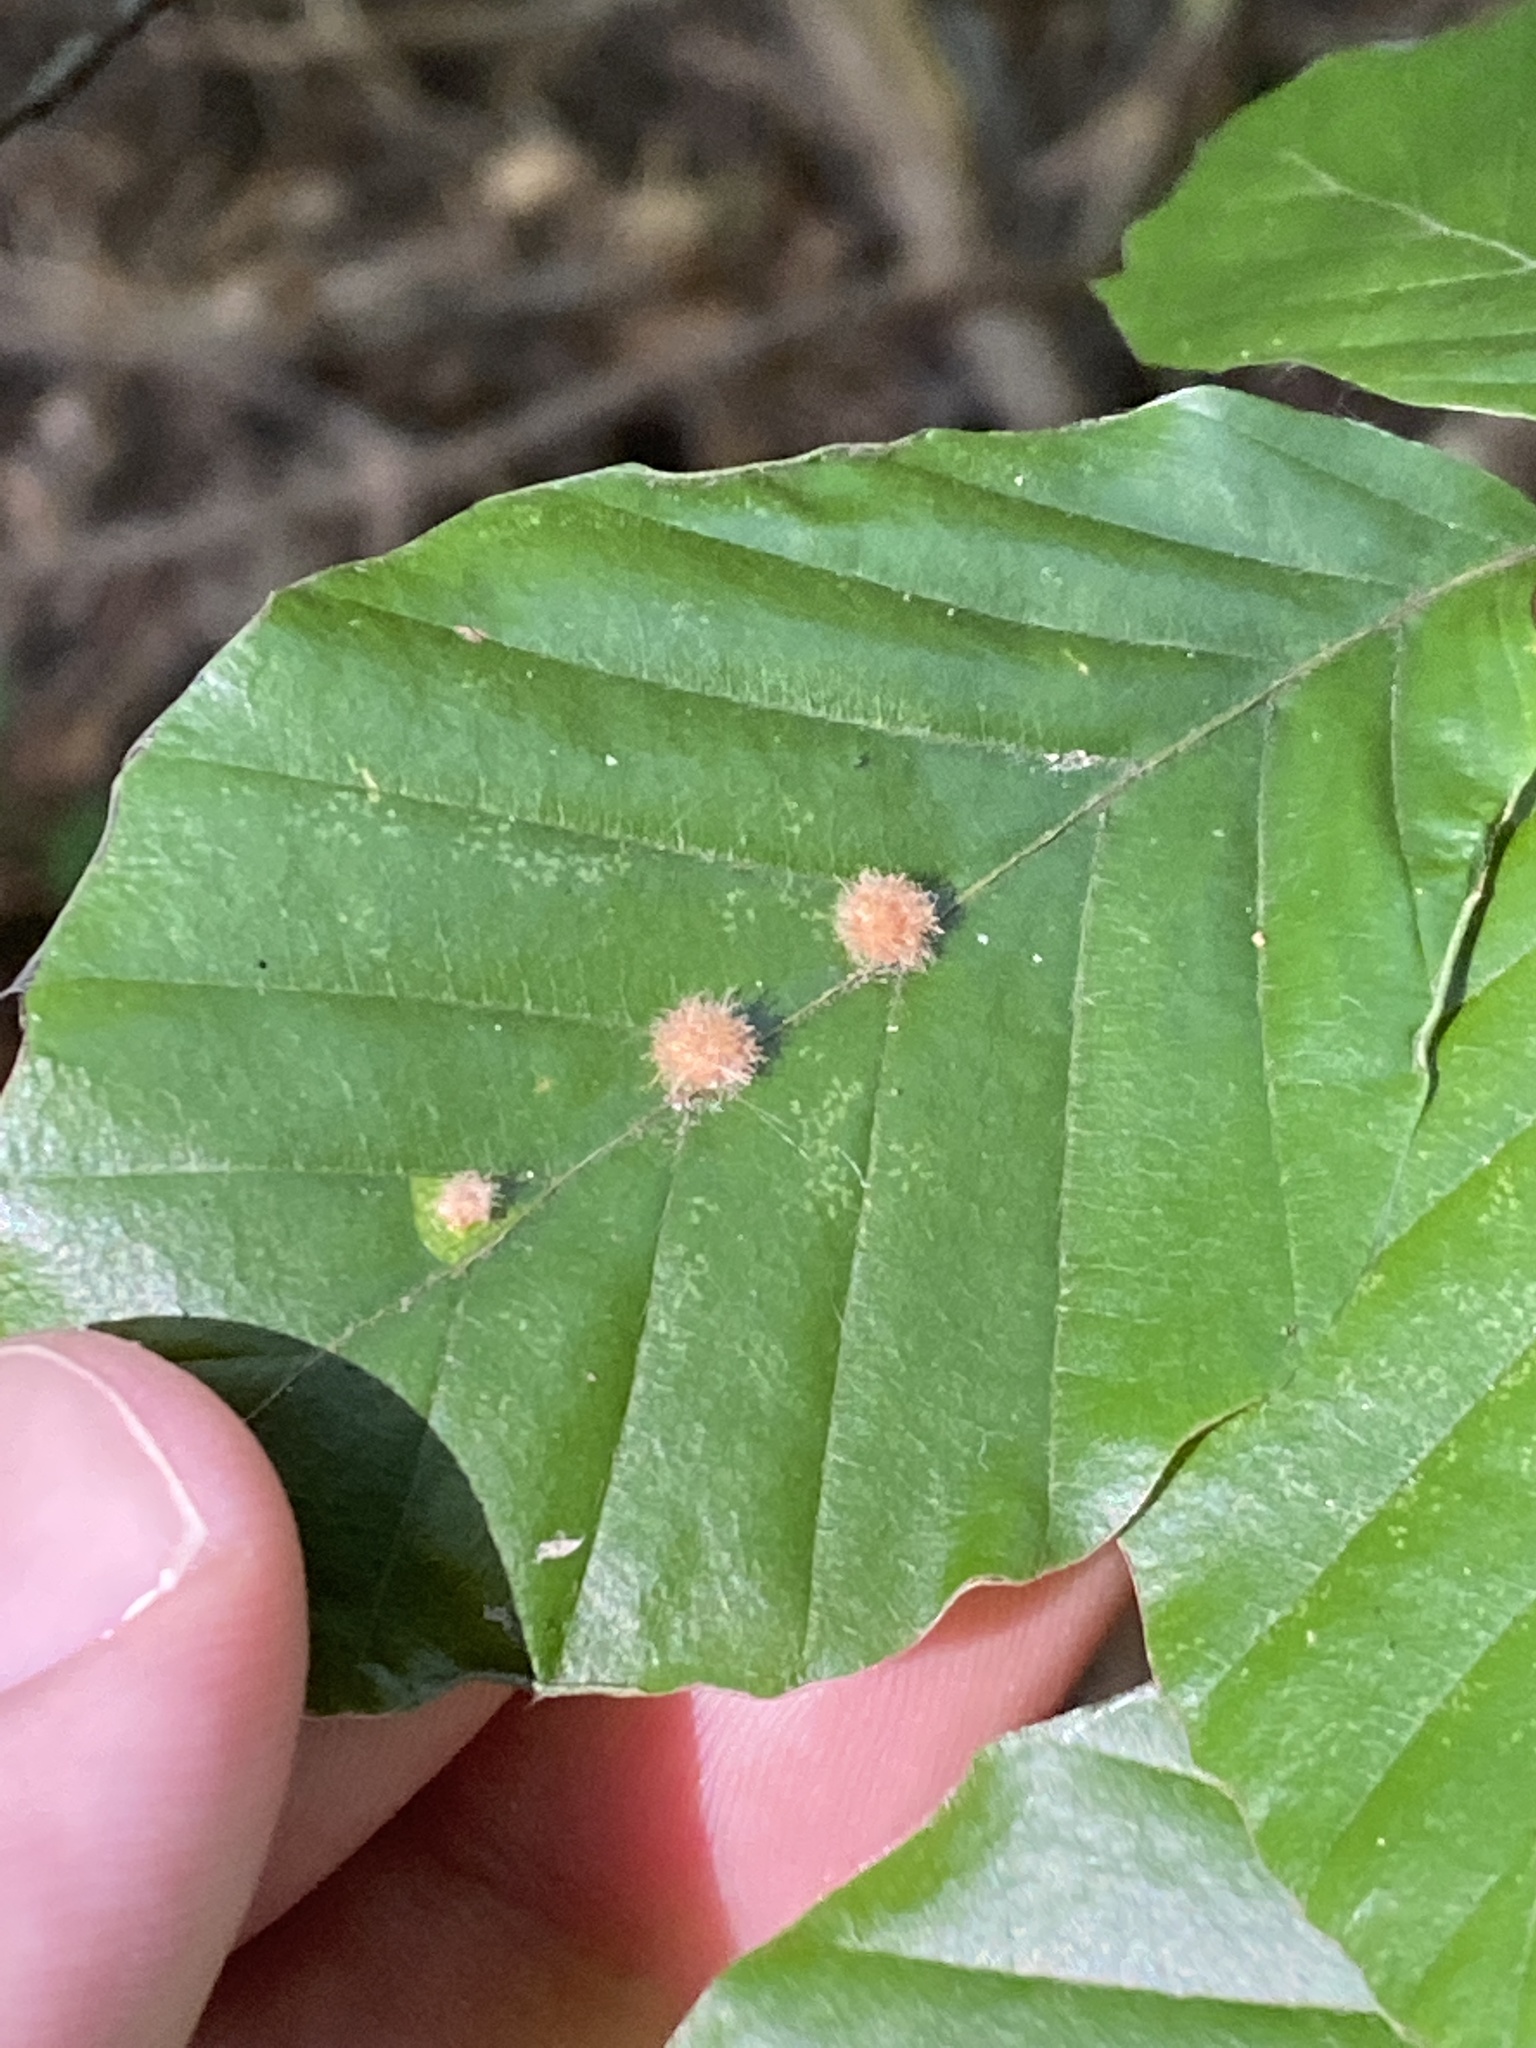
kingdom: Animalia
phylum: Arthropoda
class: Insecta
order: Diptera
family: Cecidomyiidae
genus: Hartigiola
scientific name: Hartigiola annulipes
